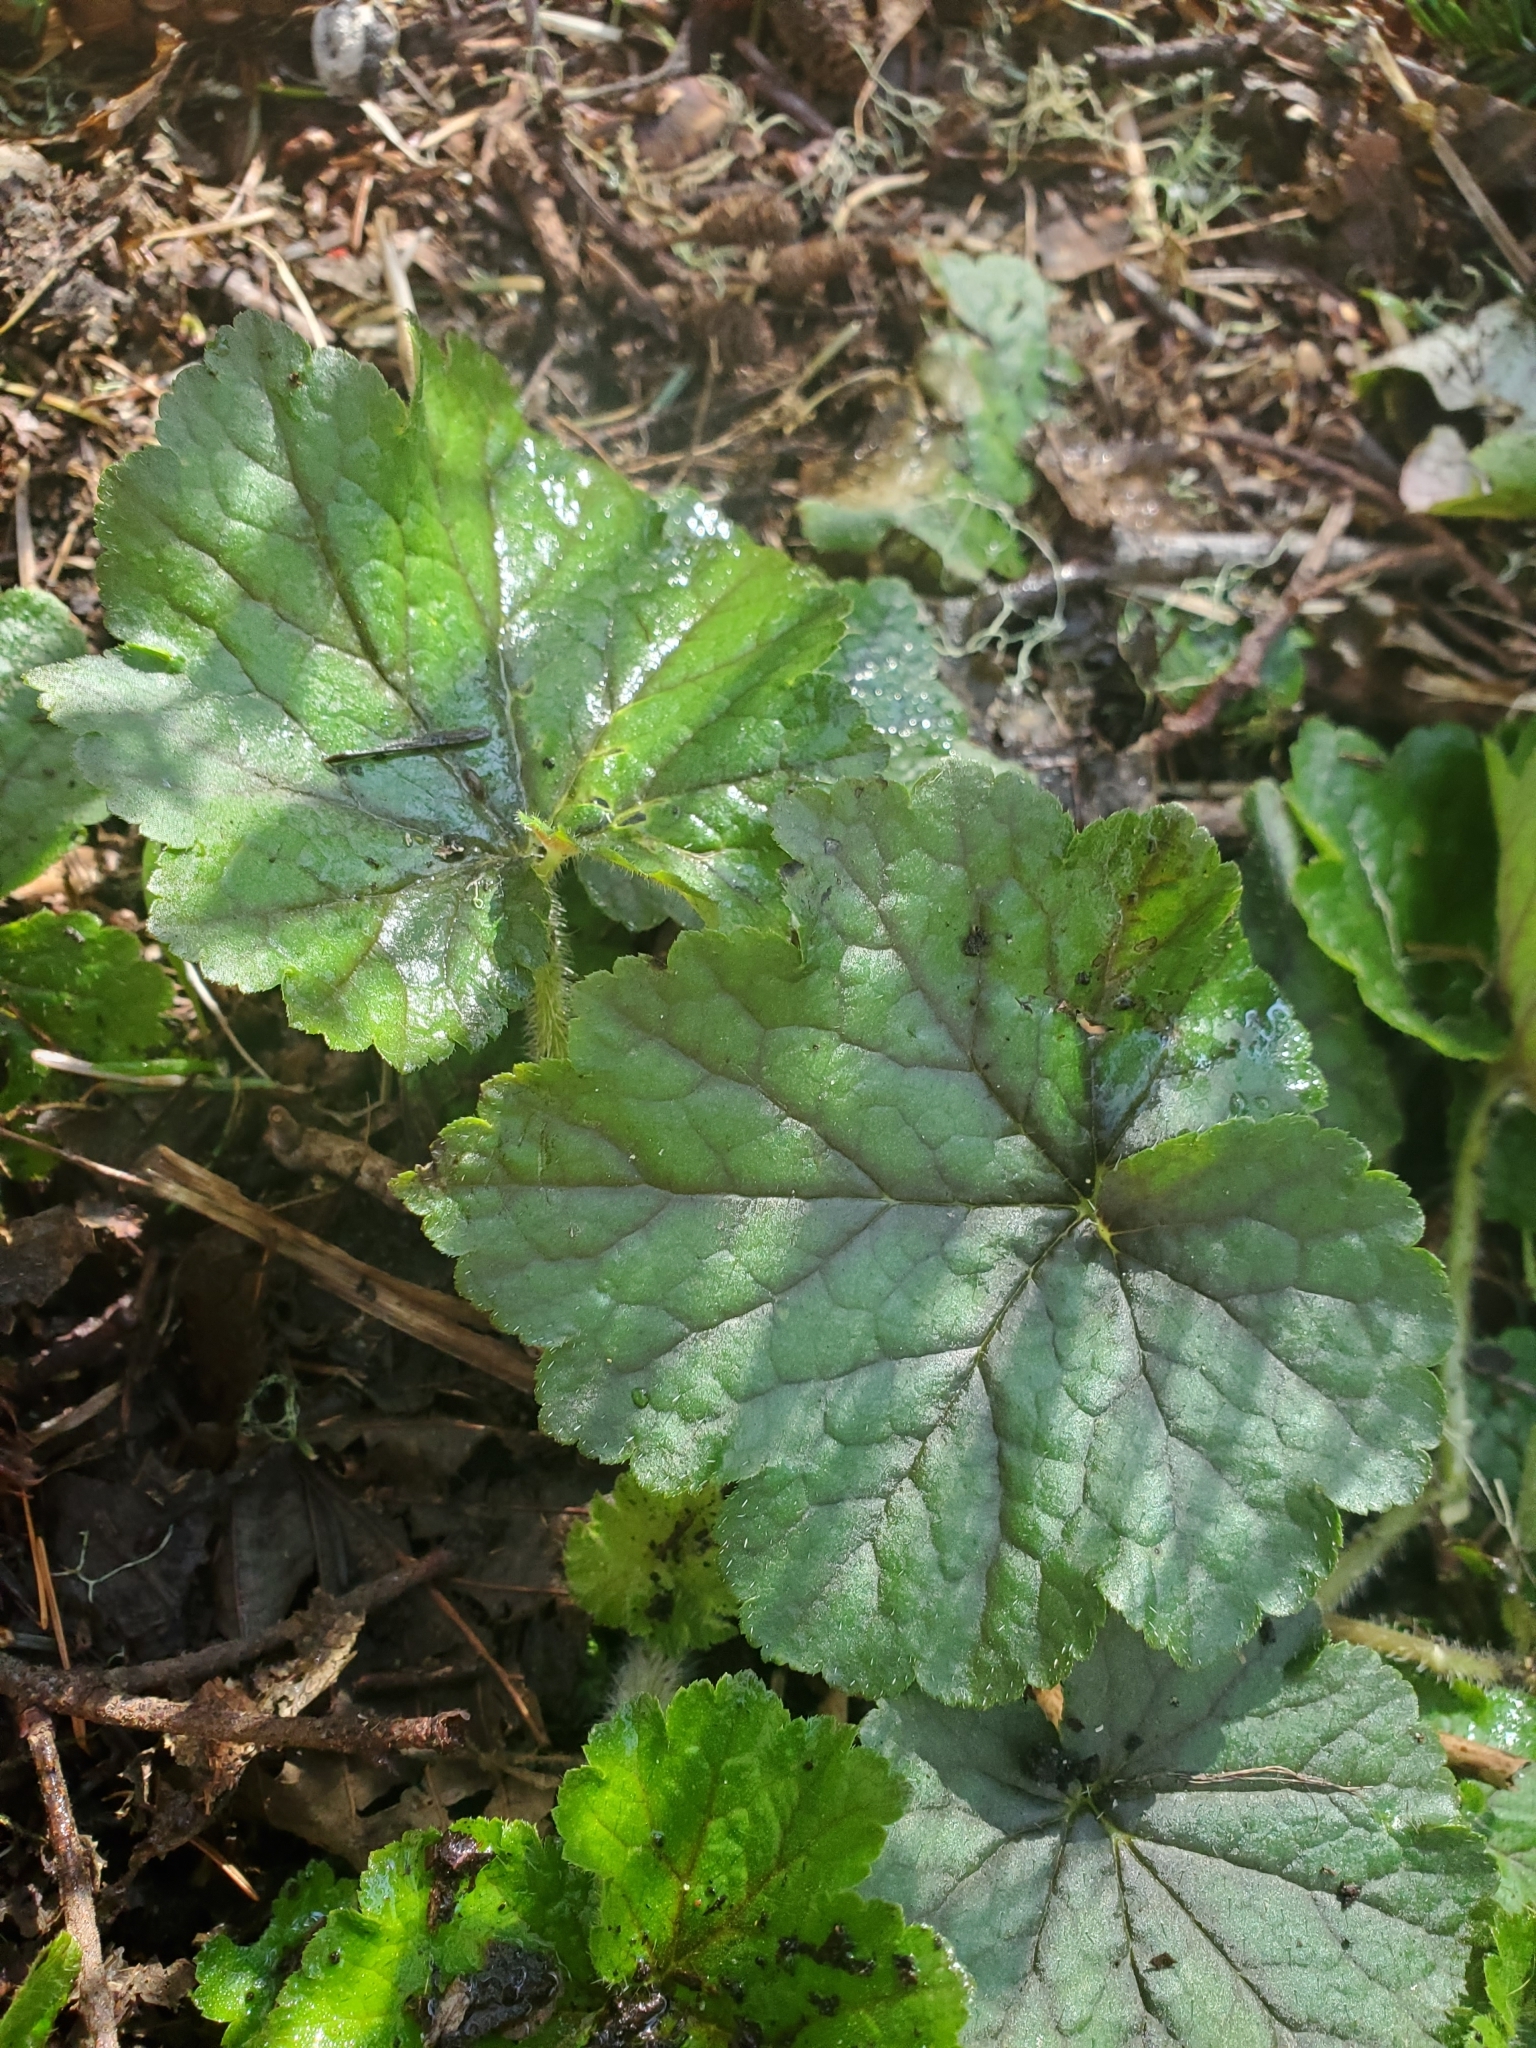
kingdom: Plantae
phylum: Tracheophyta
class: Magnoliopsida
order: Saxifragales
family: Saxifragaceae
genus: Tellima
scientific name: Tellima grandiflora
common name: Fringecups
